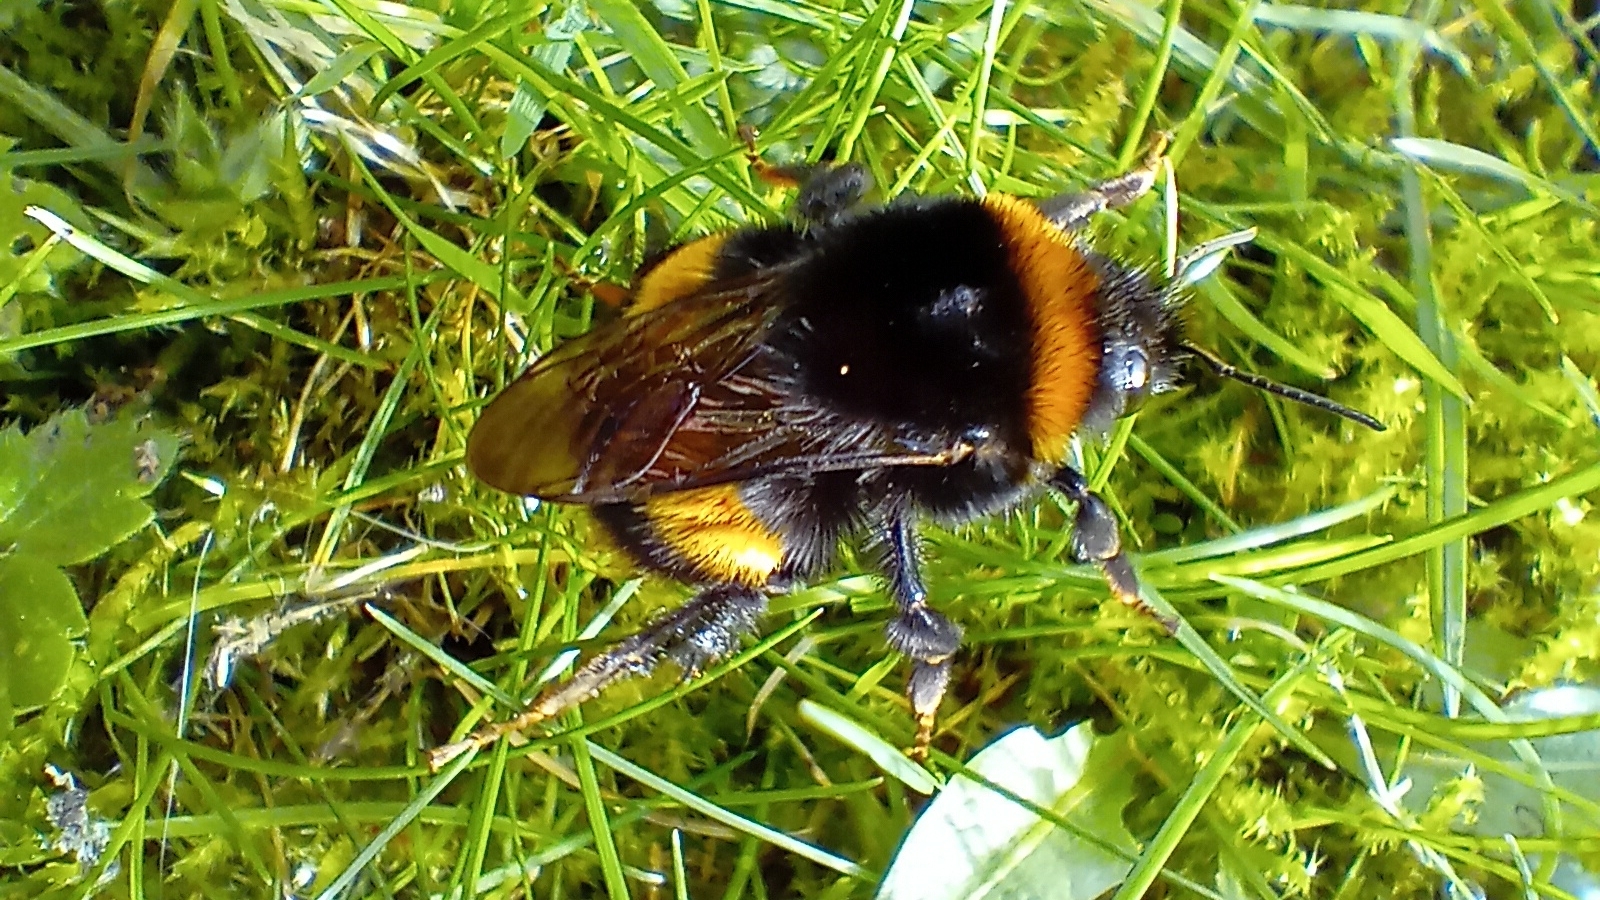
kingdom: Animalia
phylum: Arthropoda
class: Insecta
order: Hymenoptera
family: Apidae
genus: Bombus
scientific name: Bombus terrestris
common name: Buff-tailed bumblebee
